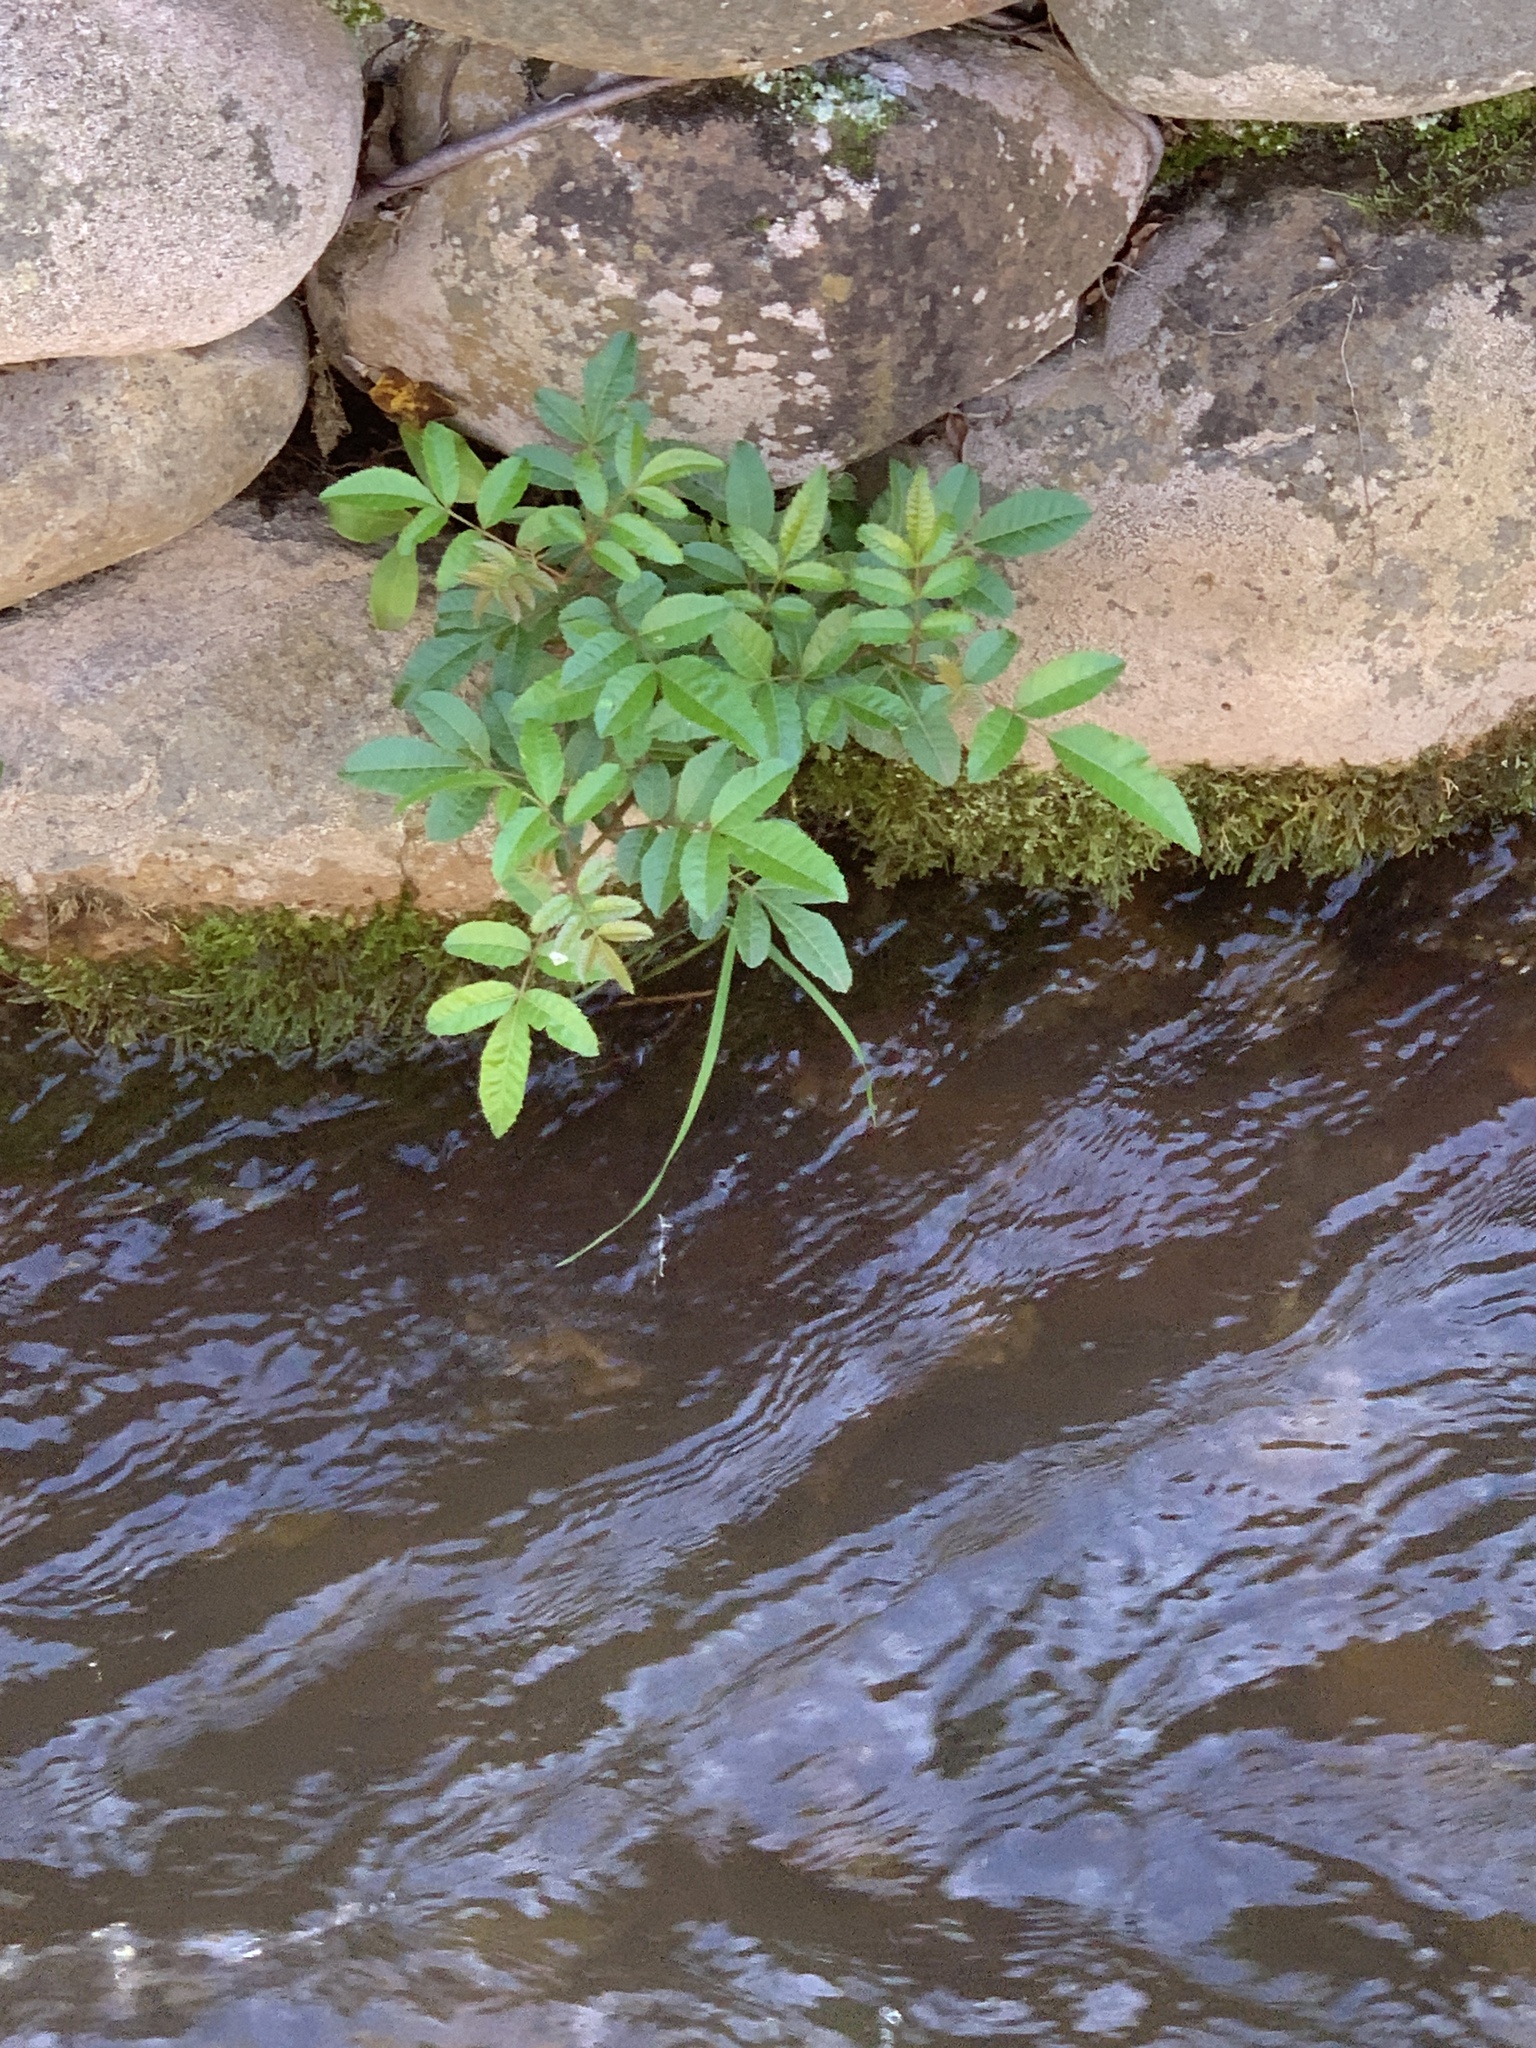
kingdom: Plantae
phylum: Tracheophyta
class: Magnoliopsida
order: Sapindales
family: Anacardiaceae
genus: Schinus
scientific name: Schinus terebinthifolia
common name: Brazilian peppertree
